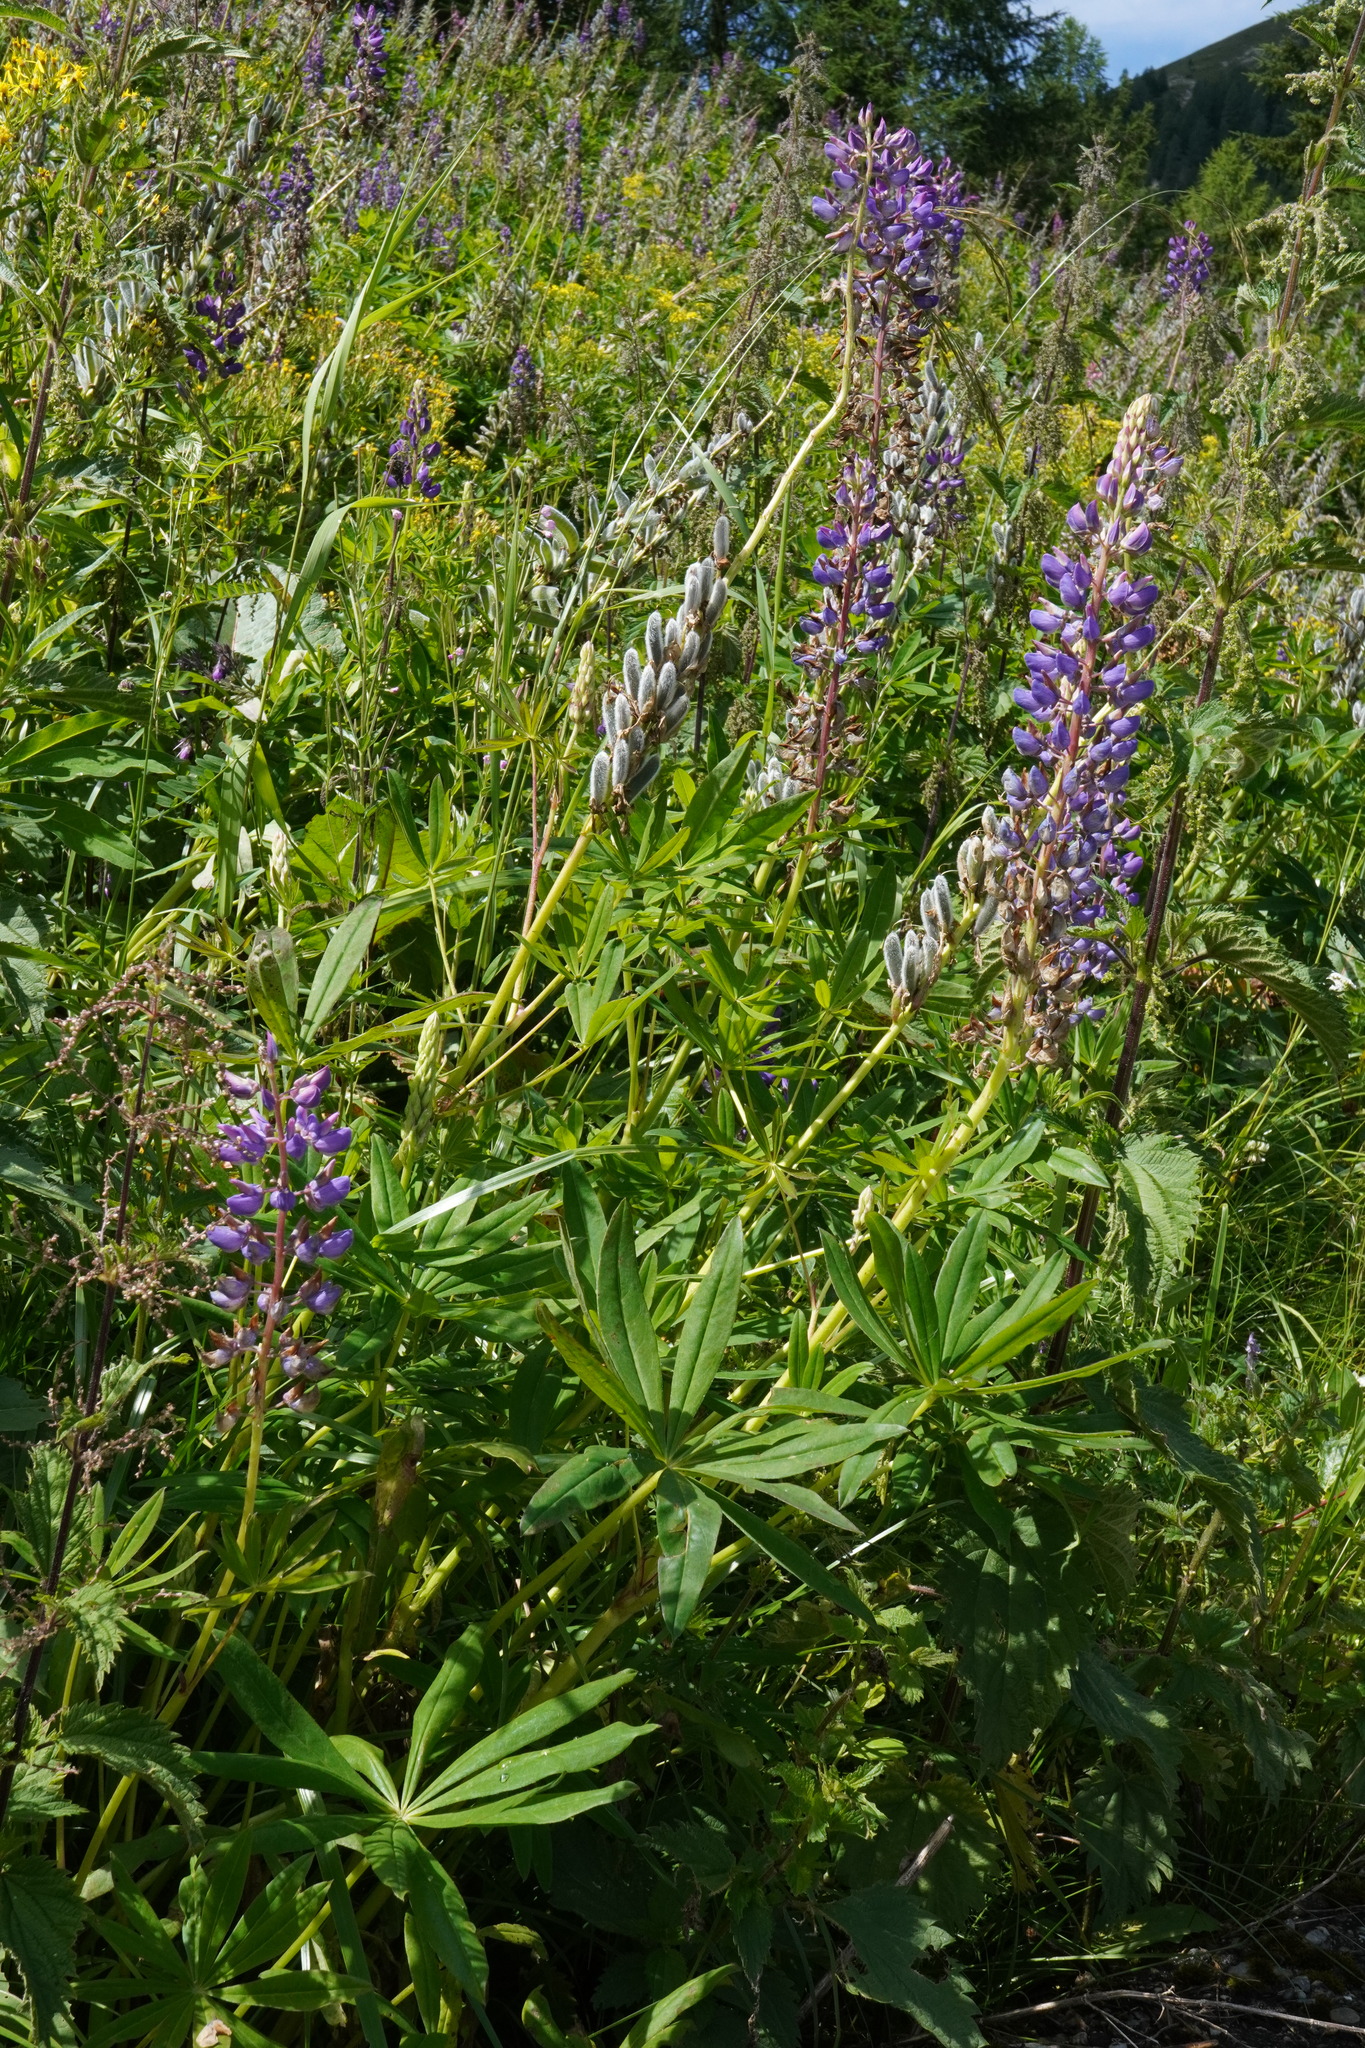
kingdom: Plantae
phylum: Tracheophyta
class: Magnoliopsida
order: Fabales
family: Fabaceae
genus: Lupinus
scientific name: Lupinus polyphyllus
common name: Garden lupin
